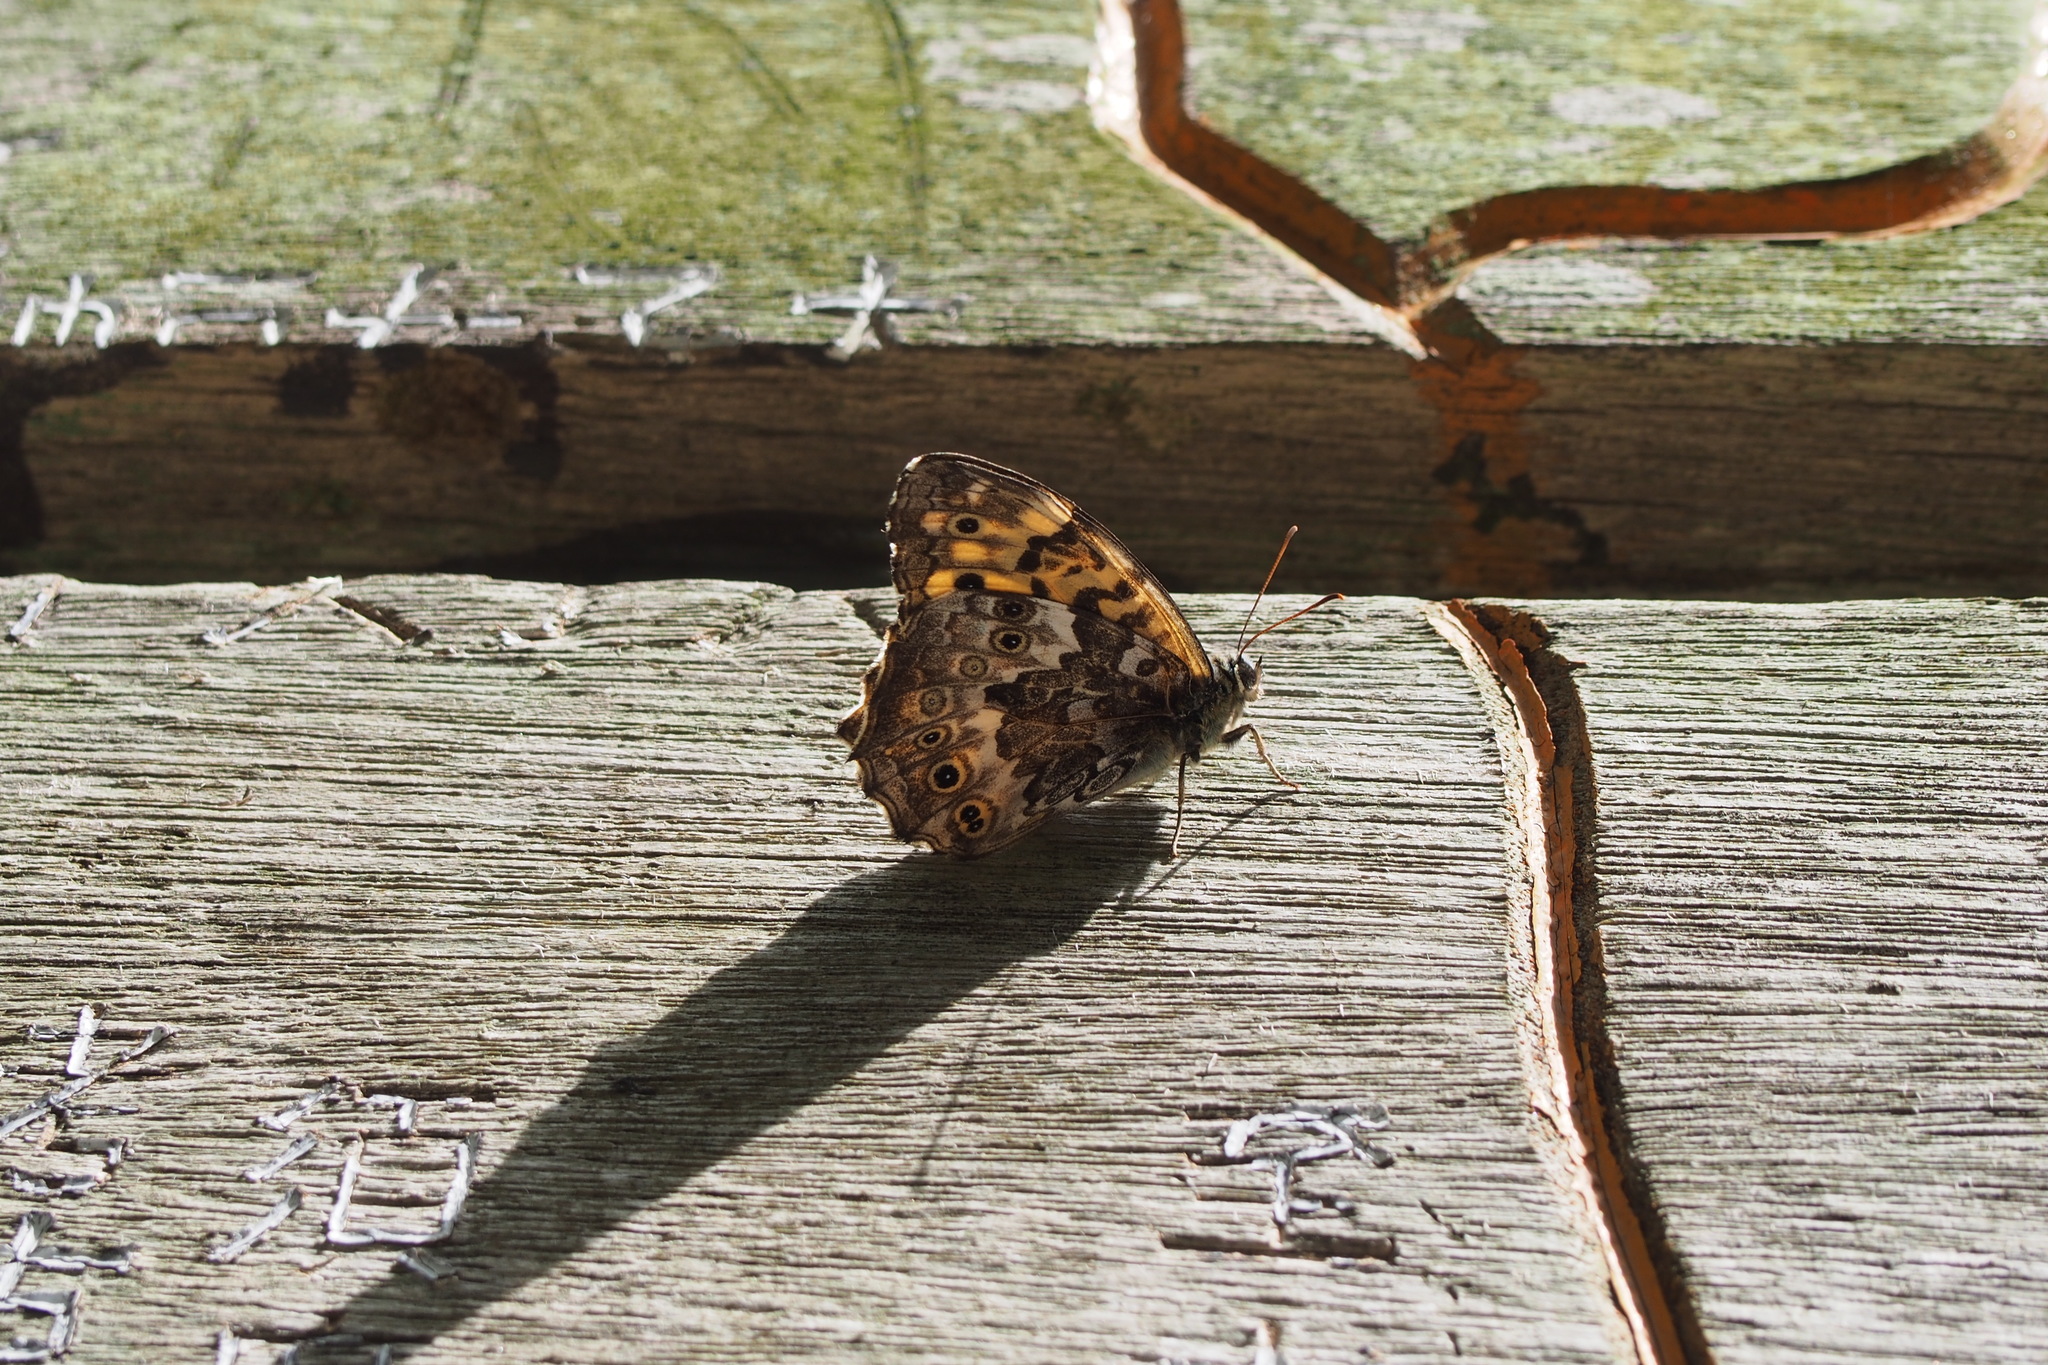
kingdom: Animalia
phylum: Arthropoda
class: Insecta
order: Lepidoptera
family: Nymphalidae
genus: Neope
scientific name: Neope goschkevitschii
